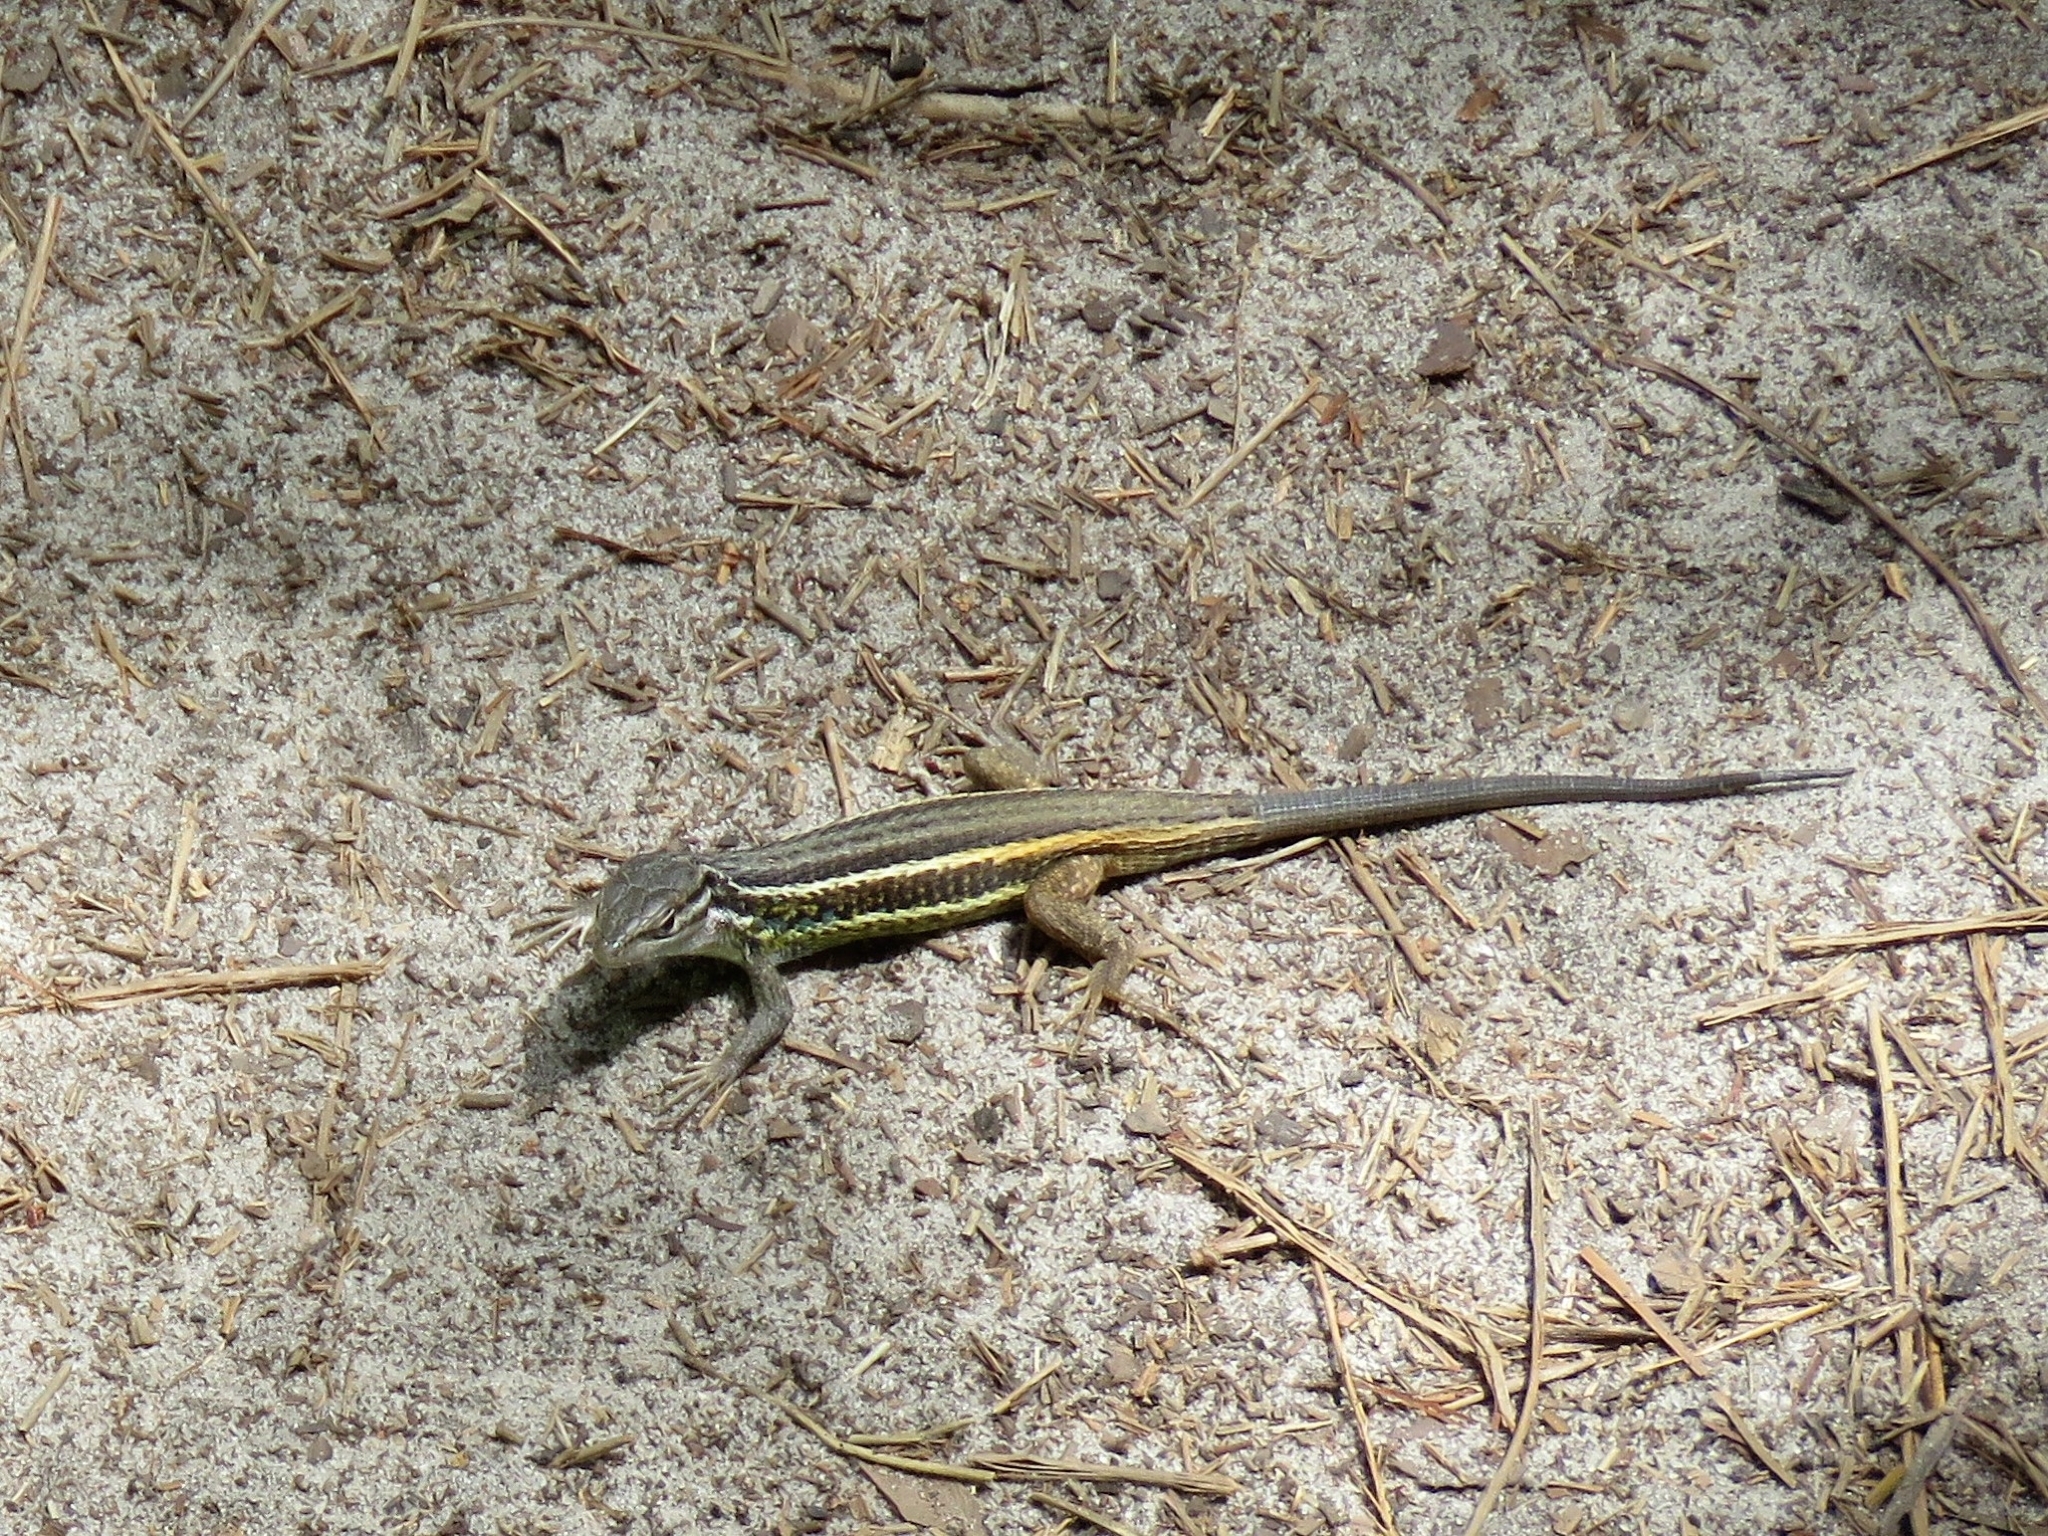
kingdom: Animalia
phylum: Chordata
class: Squamata
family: Lacertidae
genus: Psammodromus
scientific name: Psammodromus algirus
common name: Algerian psammodromus
